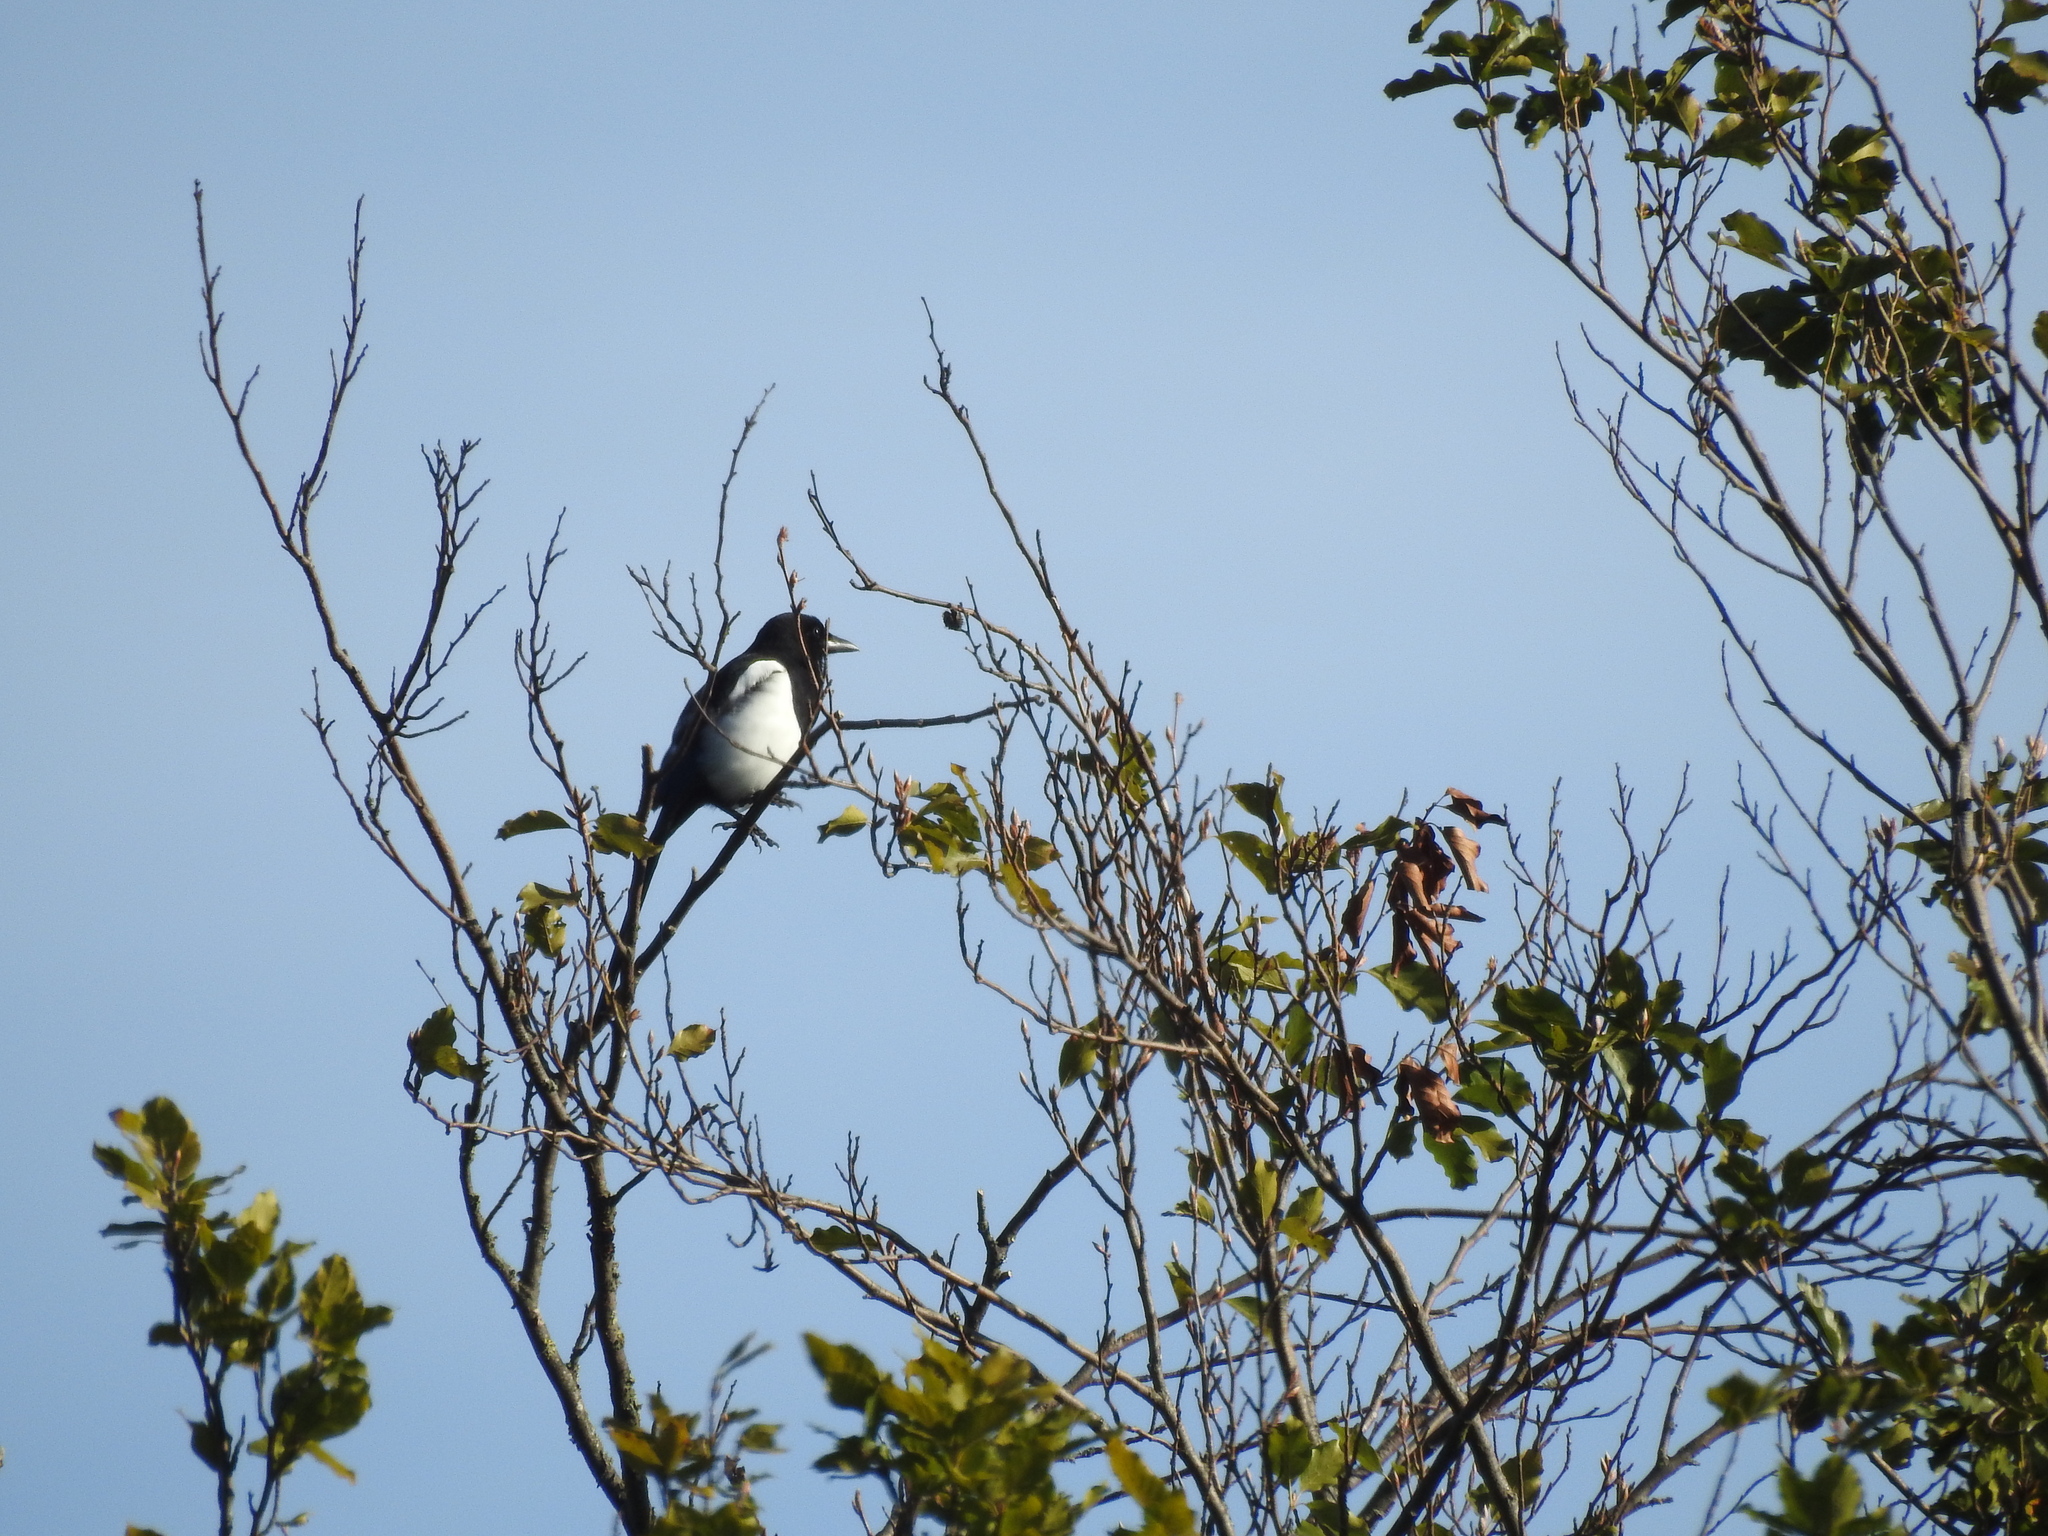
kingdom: Animalia
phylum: Chordata
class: Aves
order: Passeriformes
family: Corvidae
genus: Pica
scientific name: Pica pica
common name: Eurasian magpie
